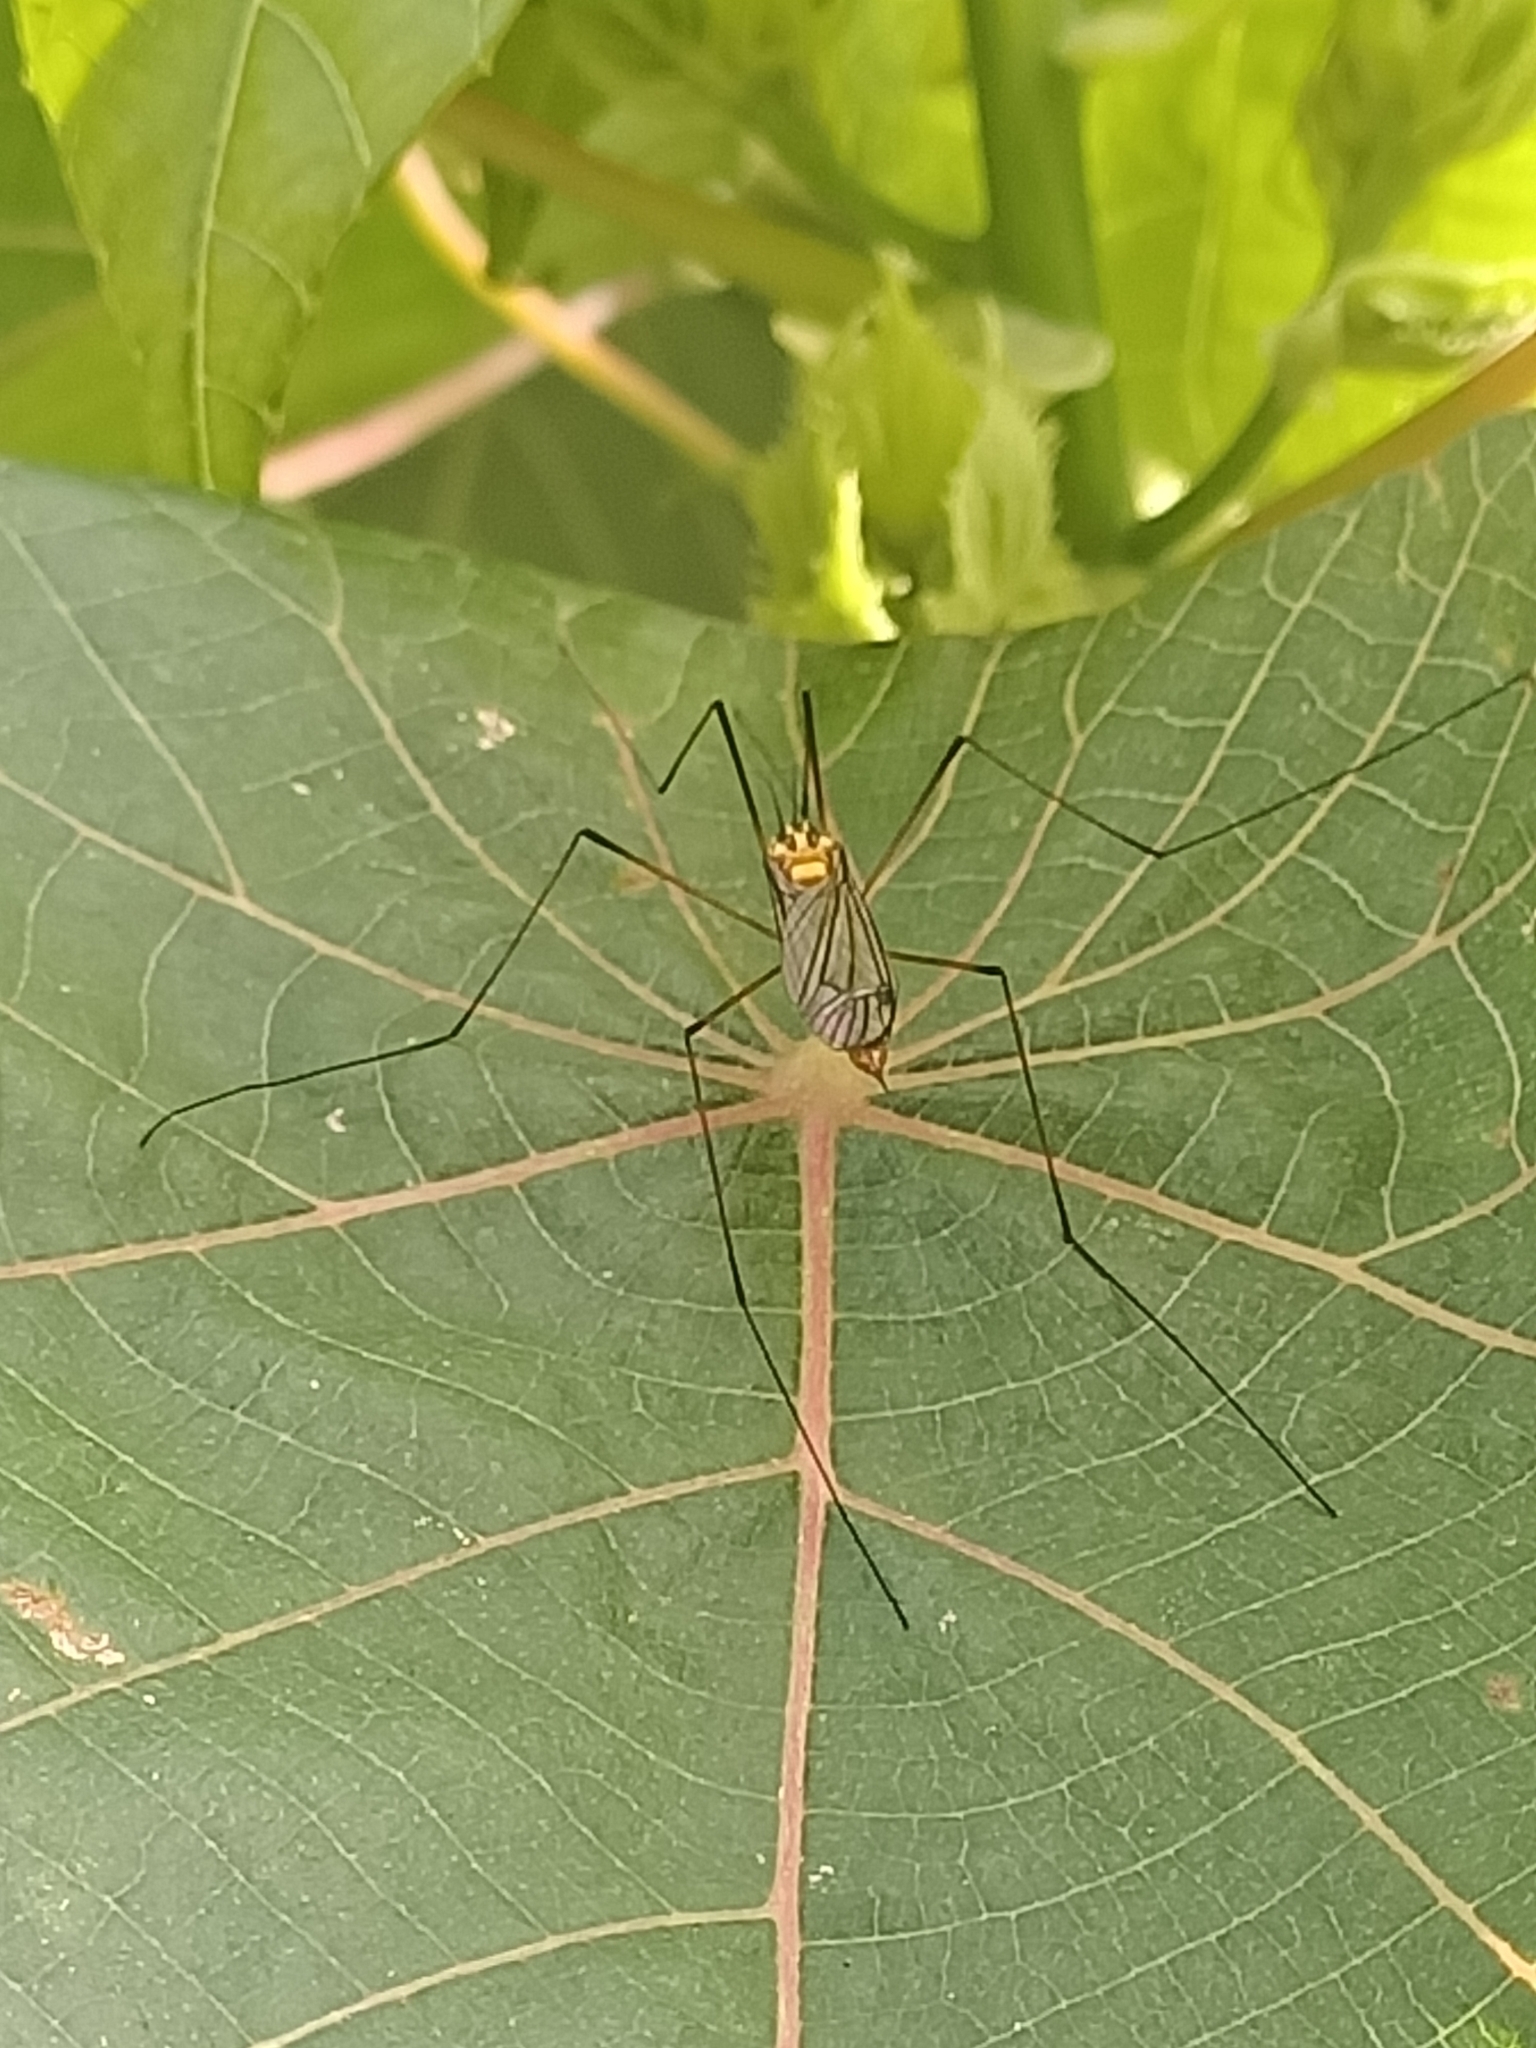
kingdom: Animalia
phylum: Arthropoda
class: Insecta
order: Diptera
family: Tipulidae
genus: Nephrotoma
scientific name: Nephrotoma australasiae
